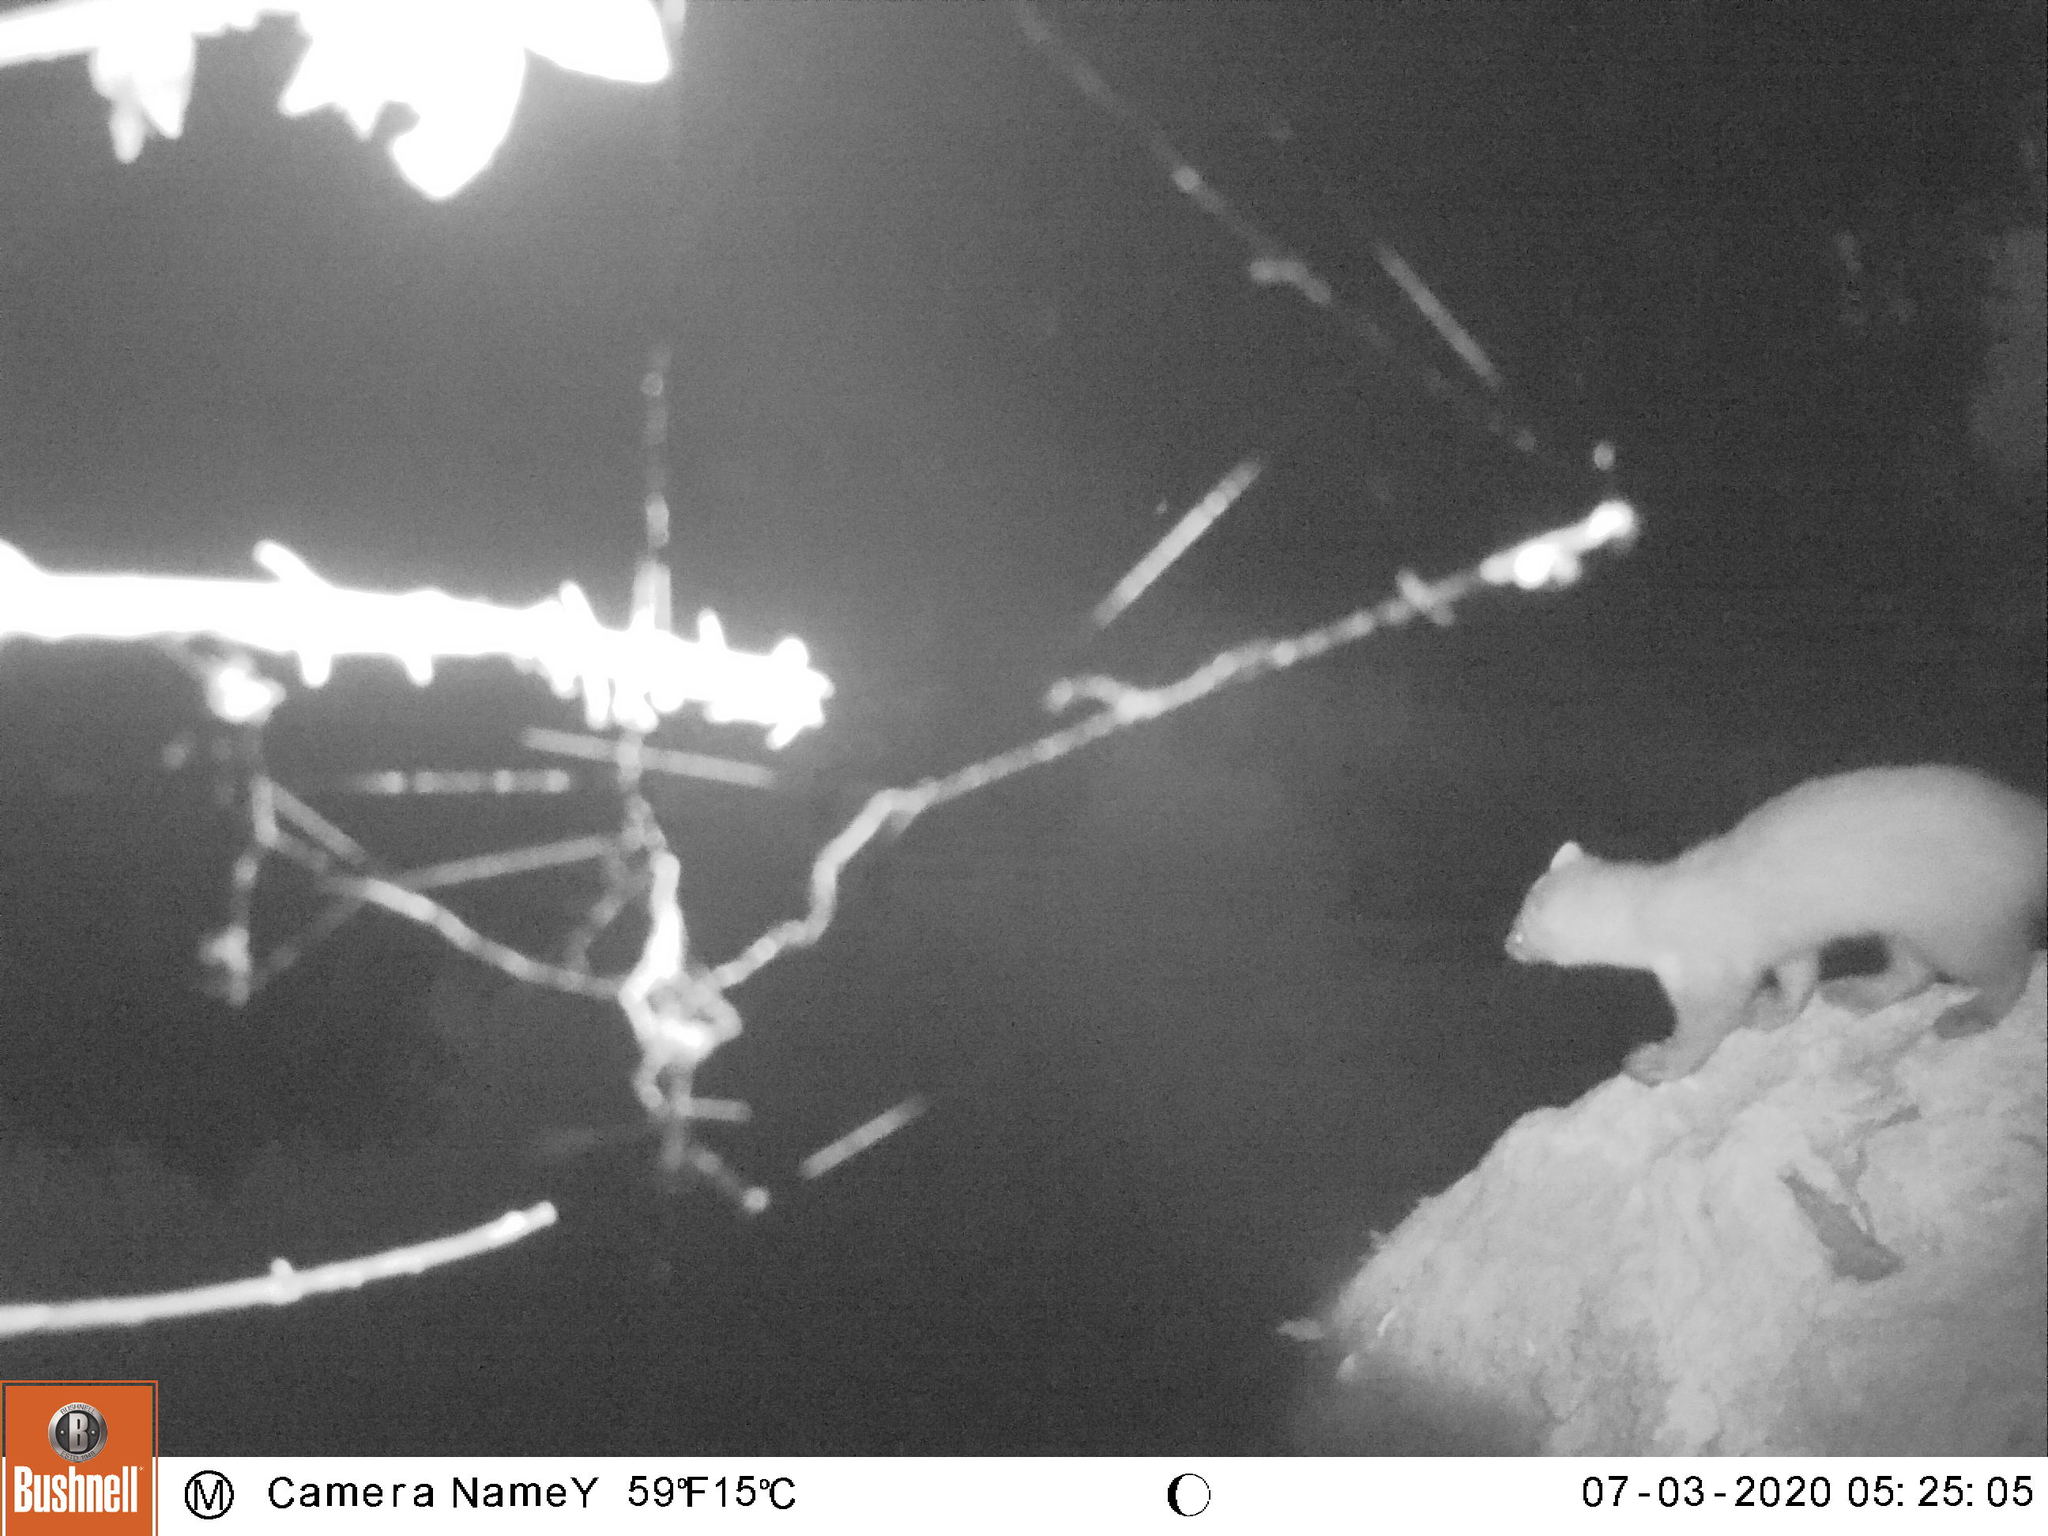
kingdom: Animalia
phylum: Chordata
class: Mammalia
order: Carnivora
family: Mustelidae
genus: Martes
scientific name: Martes foina
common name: Beech marten
